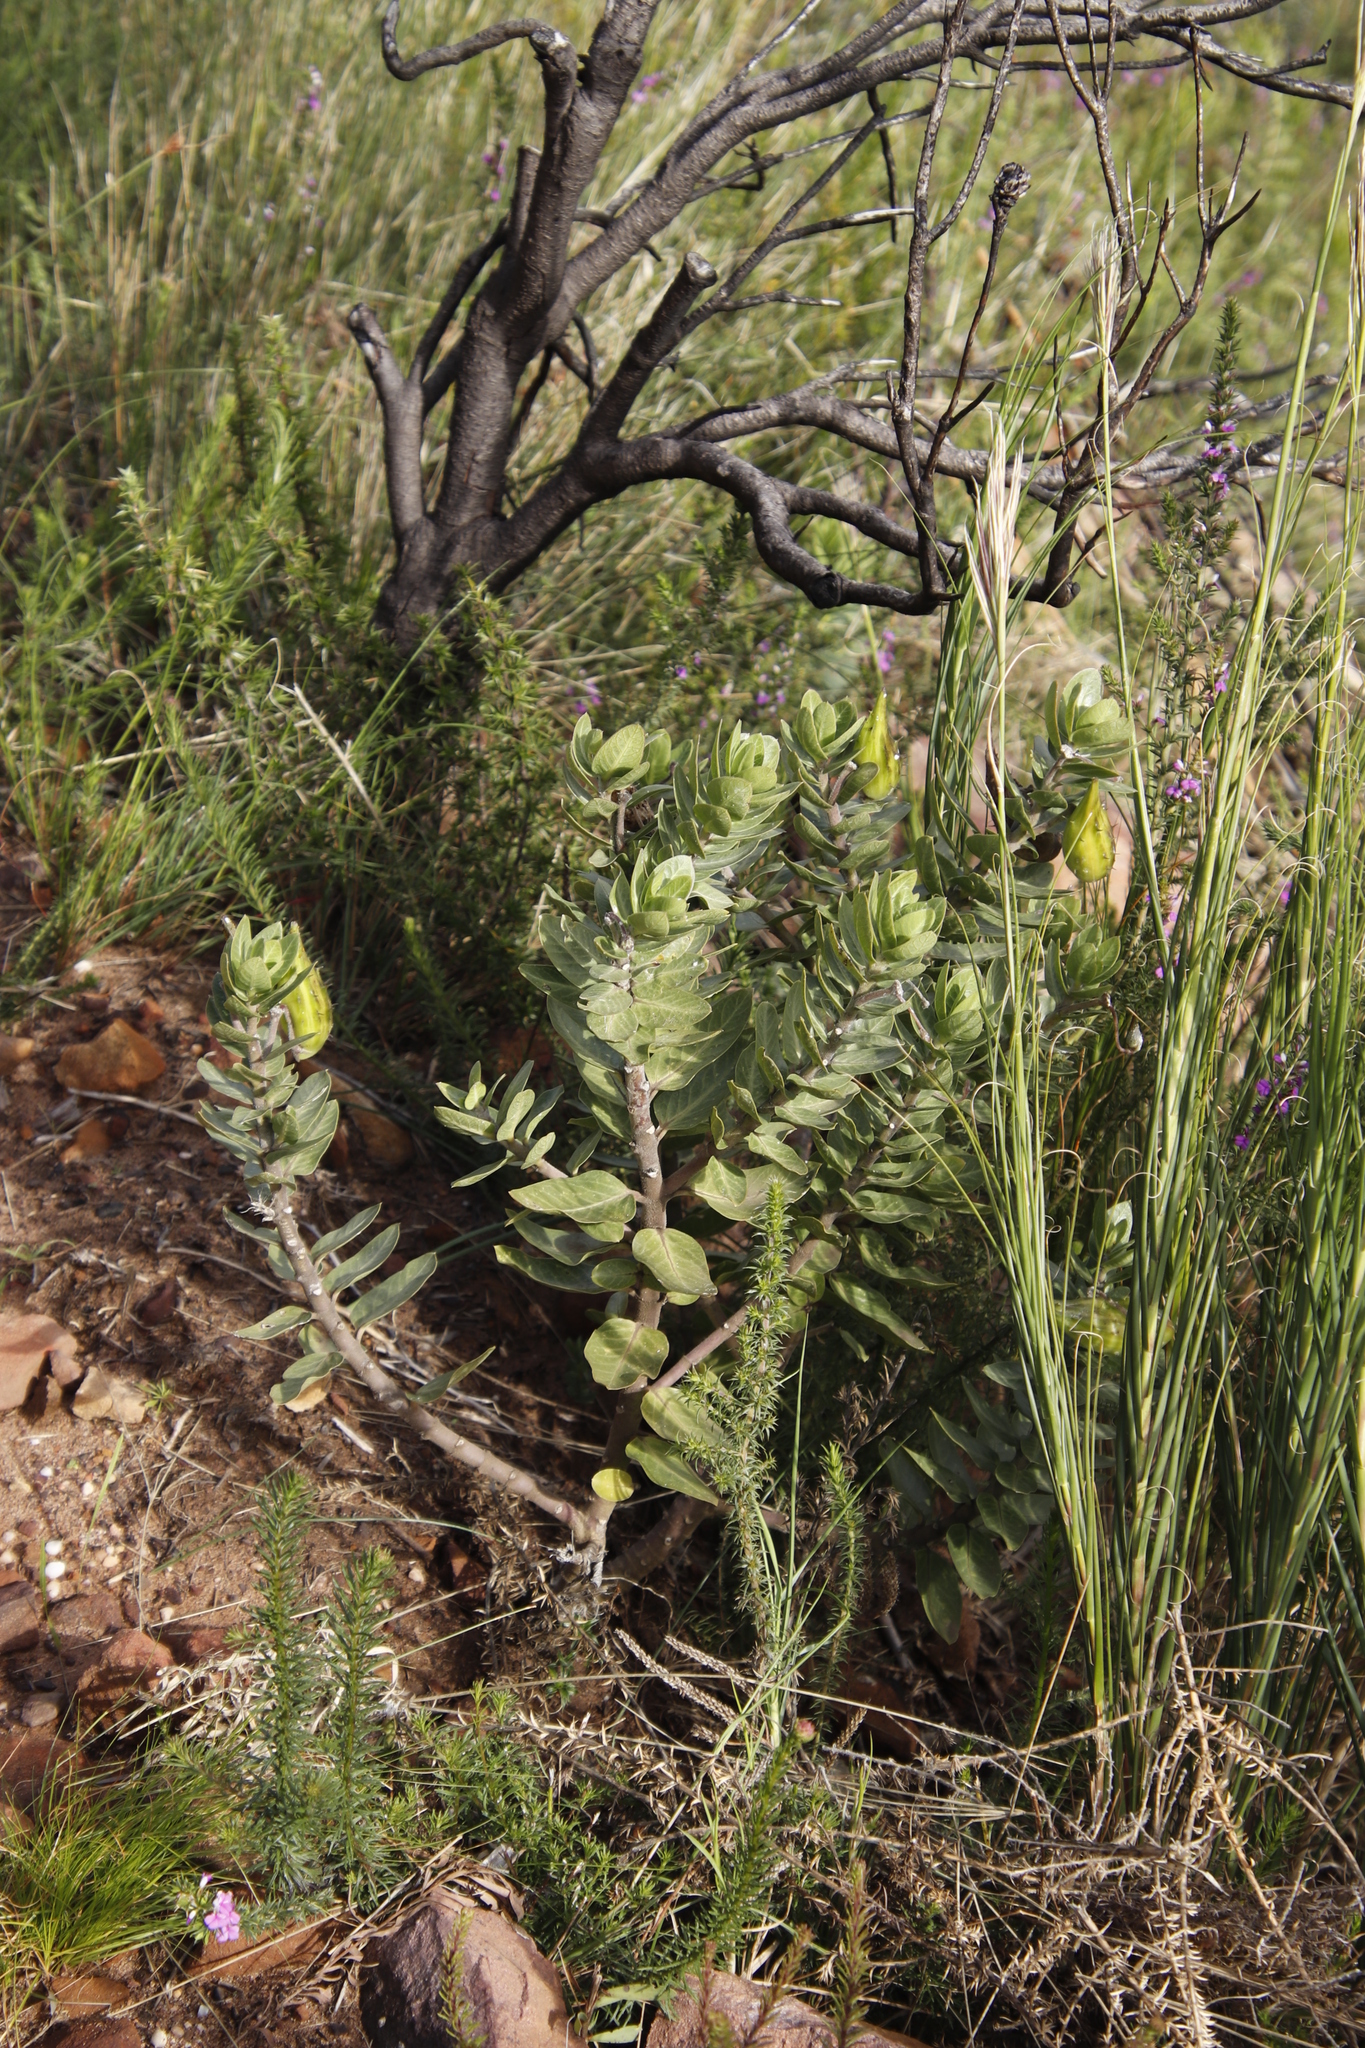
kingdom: Plantae
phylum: Tracheophyta
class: Magnoliopsida
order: Gentianales
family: Apocynaceae
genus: Gomphocarpus
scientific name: Gomphocarpus cancellatus
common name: Wild cotton
